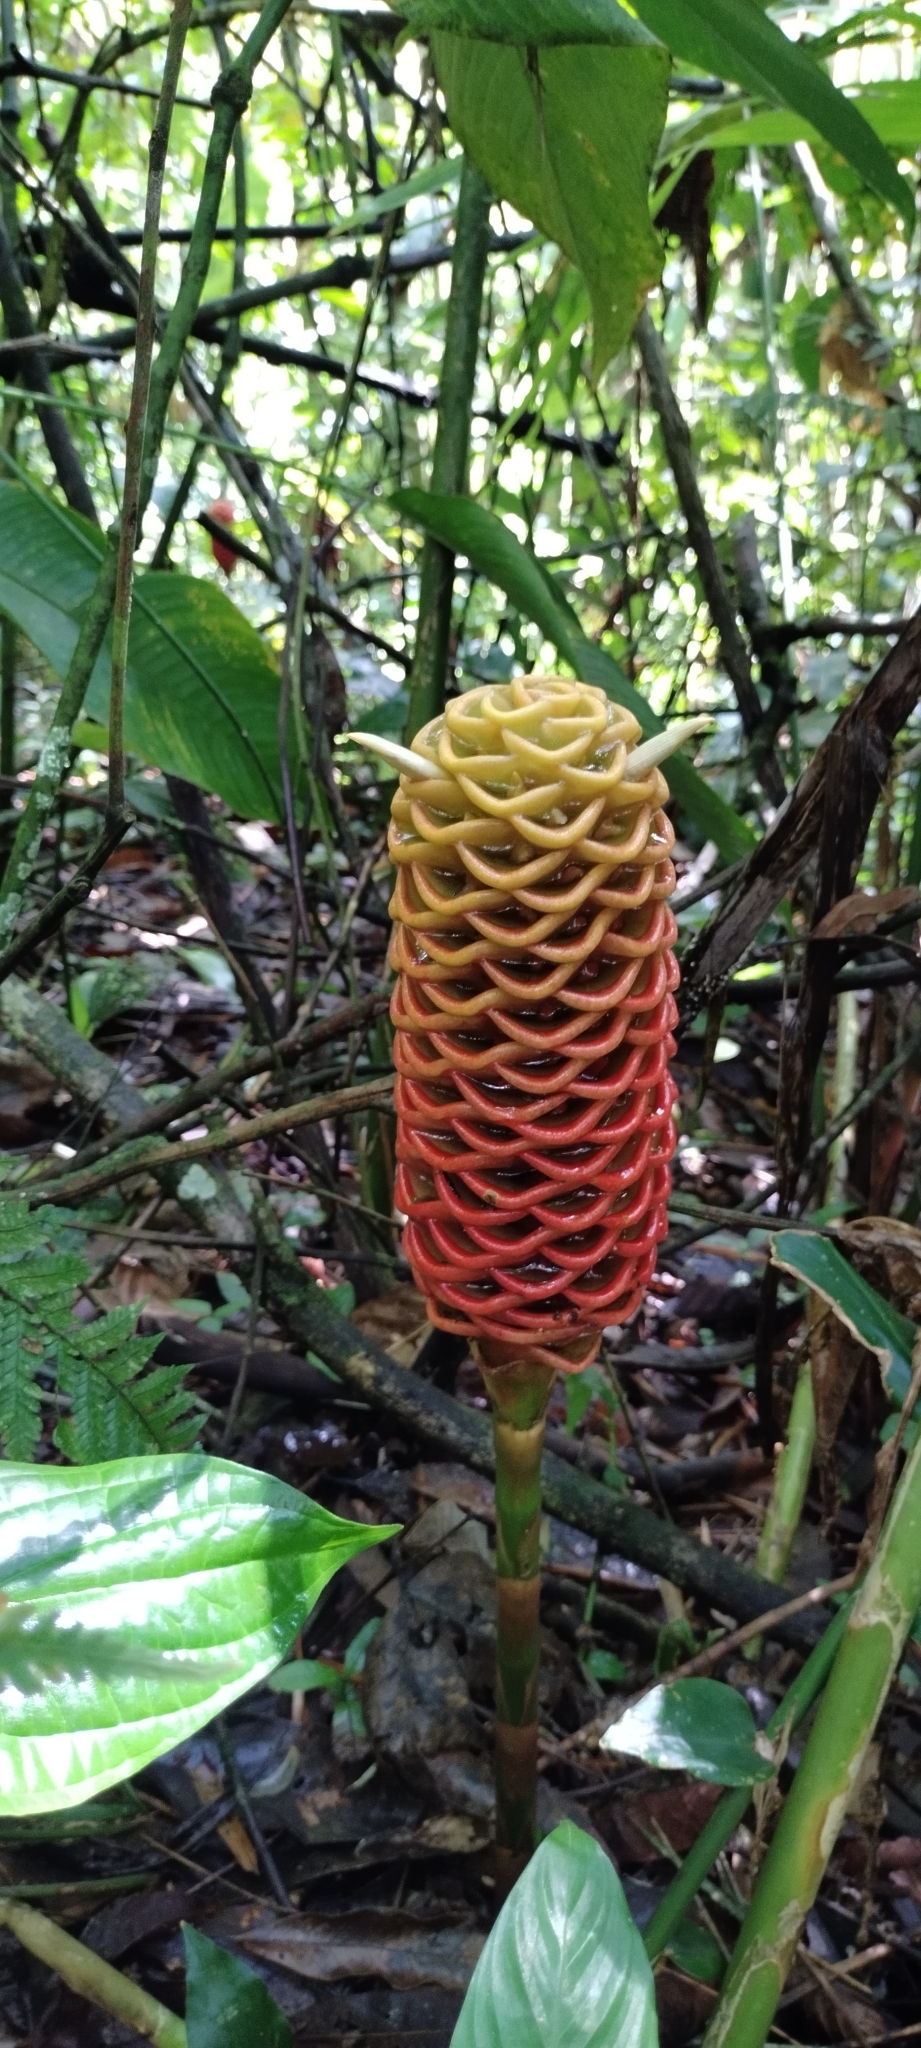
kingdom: Plantae
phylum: Tracheophyta
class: Liliopsida
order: Zingiberales
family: Zingiberaceae
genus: Zingiber
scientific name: Zingiber spectabile
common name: Beehive ginger
